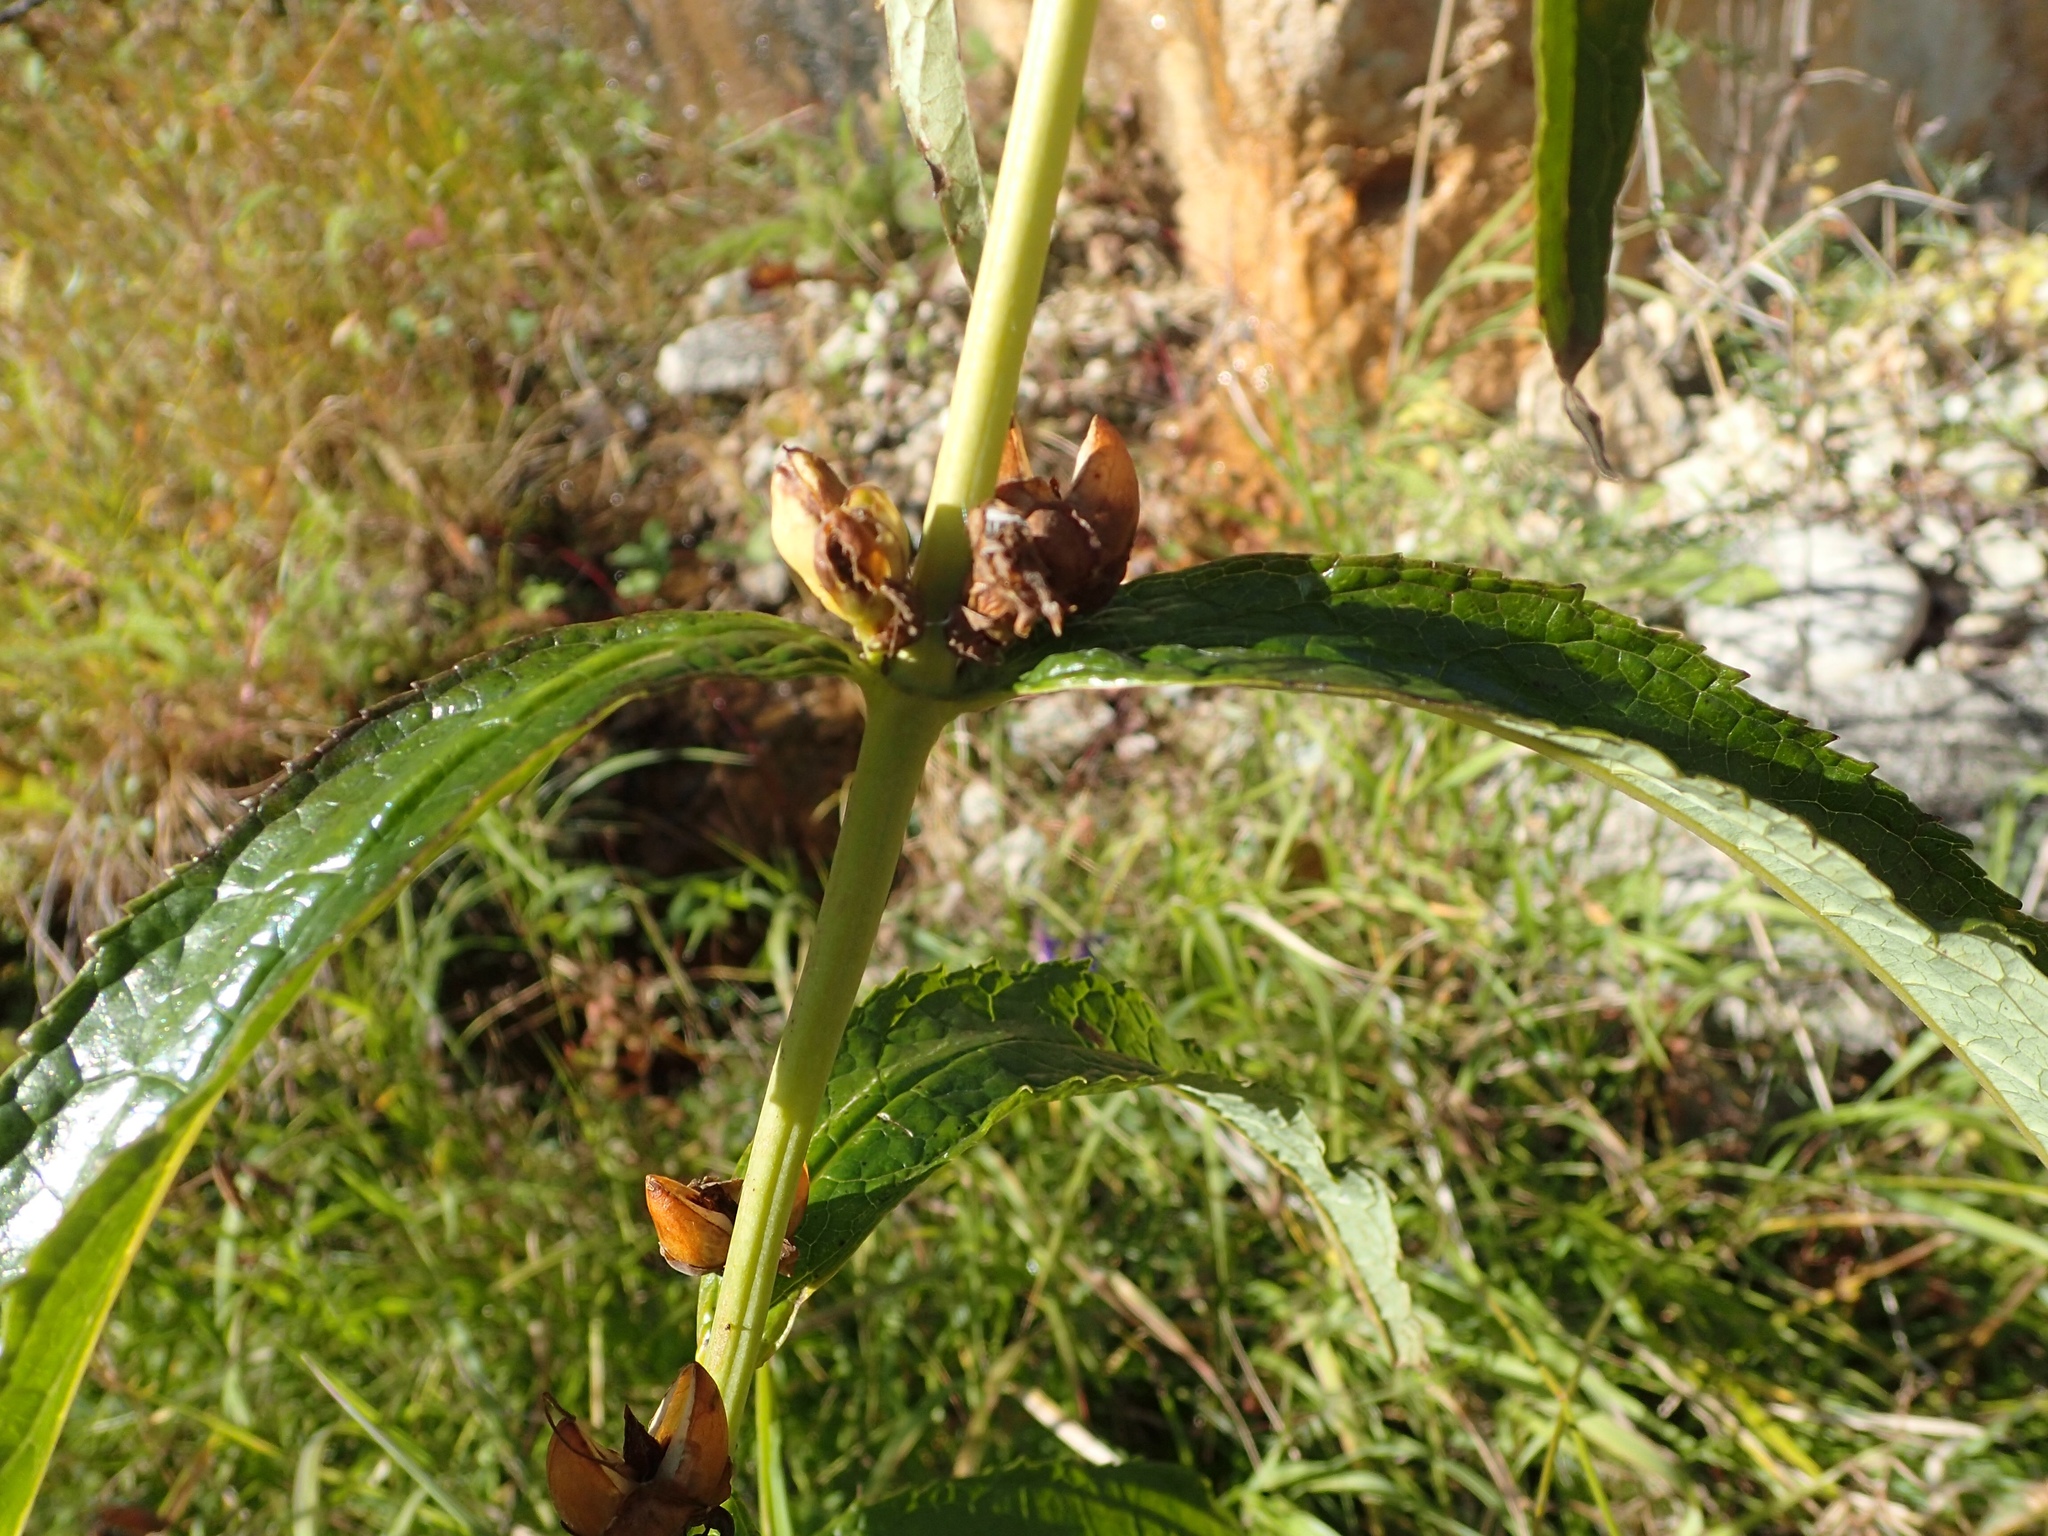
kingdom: Plantae
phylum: Tracheophyta
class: Magnoliopsida
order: Lamiales
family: Plantaginaceae
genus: Chelone
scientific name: Chelone glabra
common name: Snakehead
